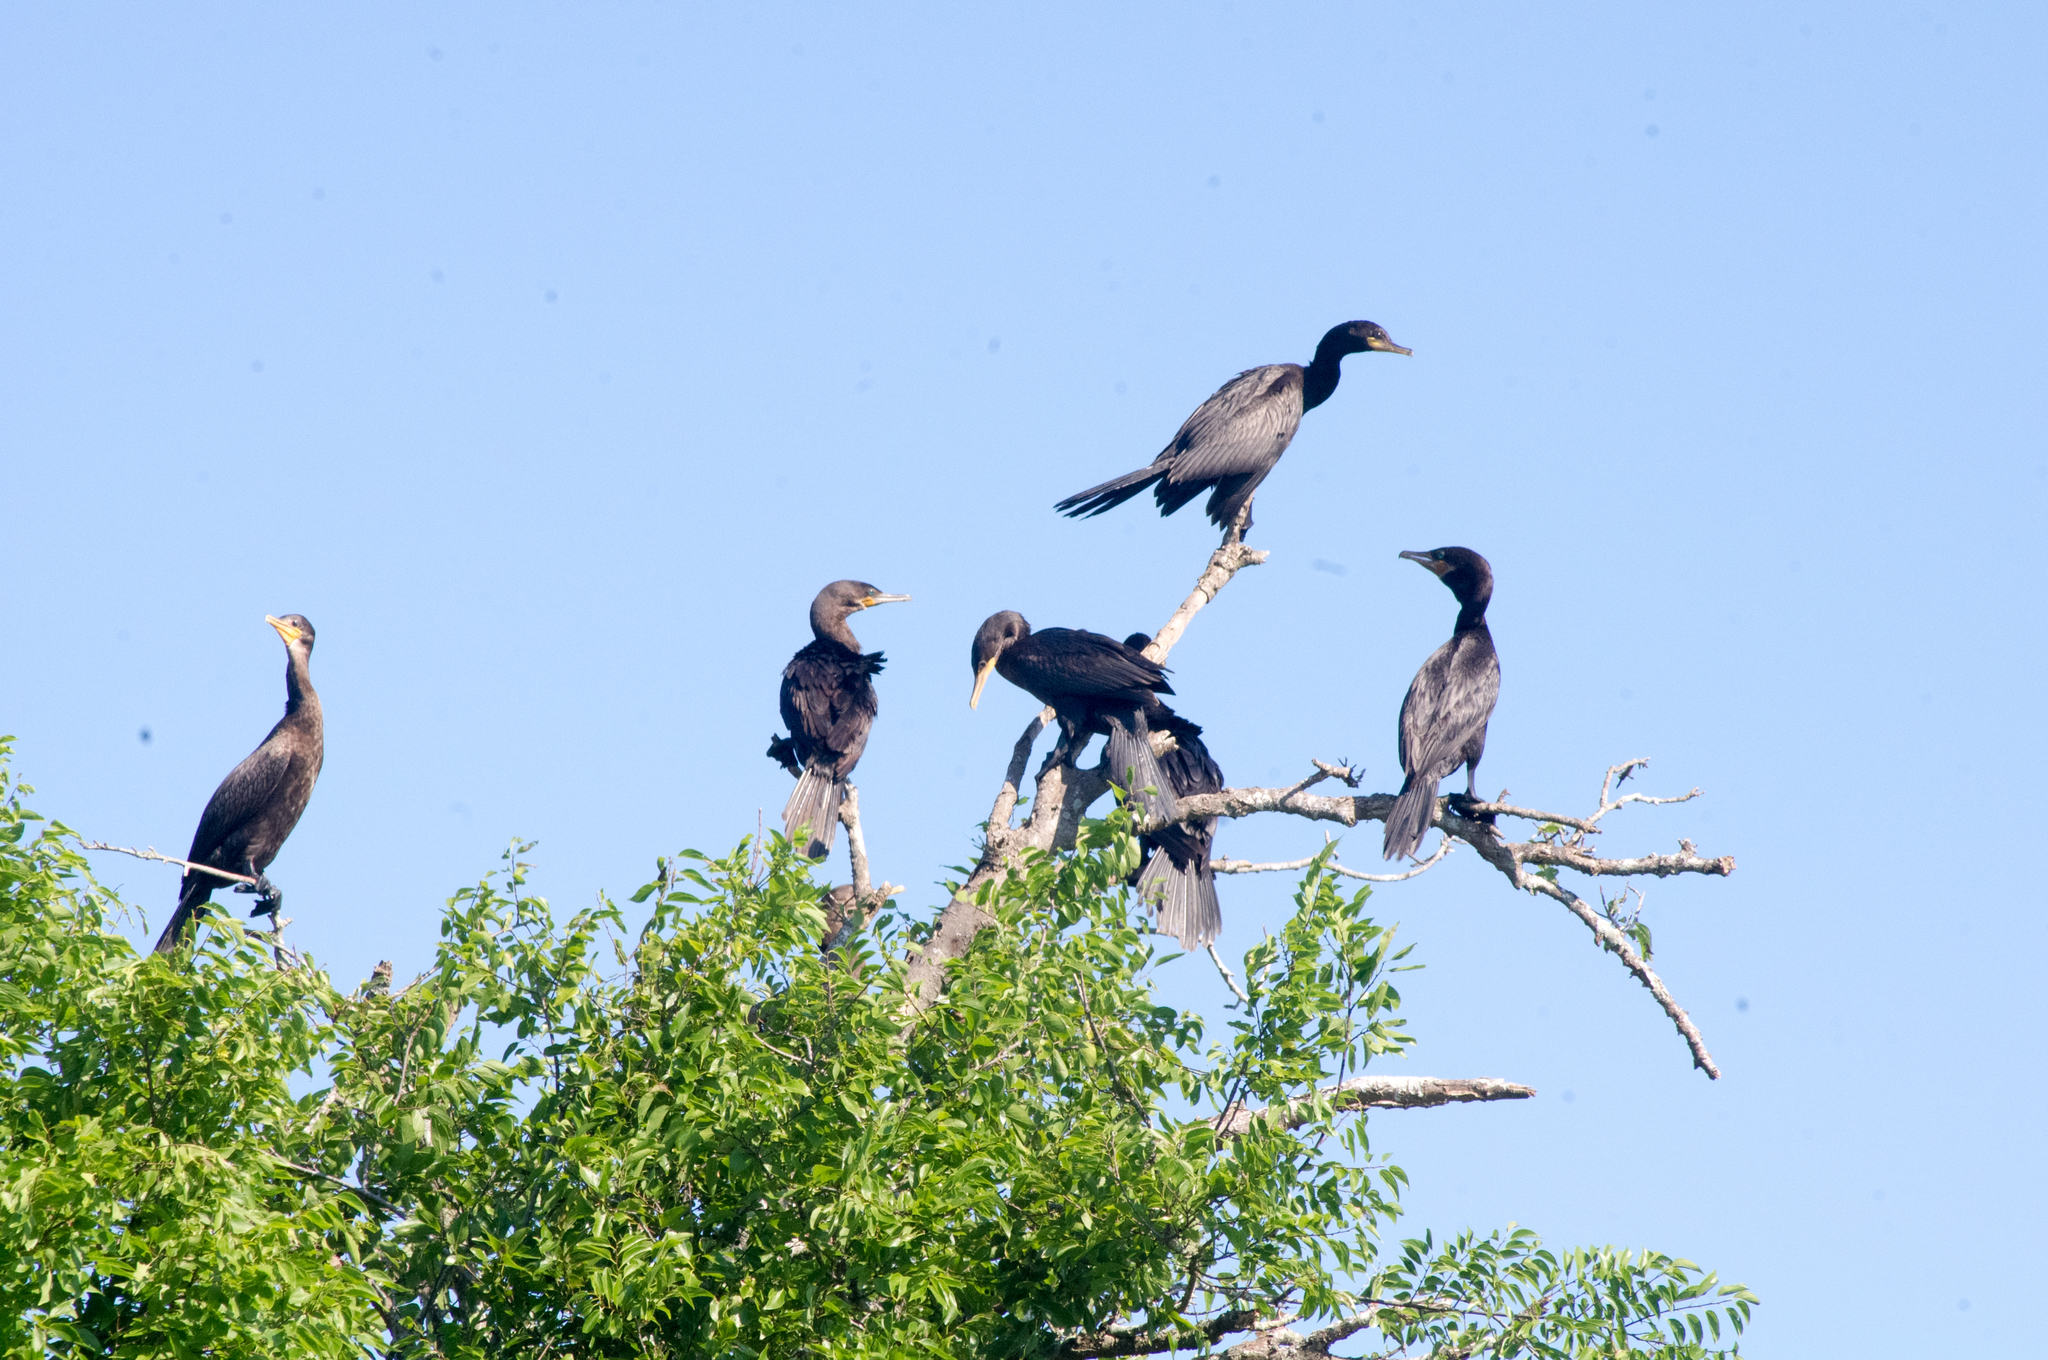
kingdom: Animalia
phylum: Chordata
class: Aves
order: Suliformes
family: Phalacrocoracidae
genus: Phalacrocorax
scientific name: Phalacrocorax brasilianus
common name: Neotropic cormorant
